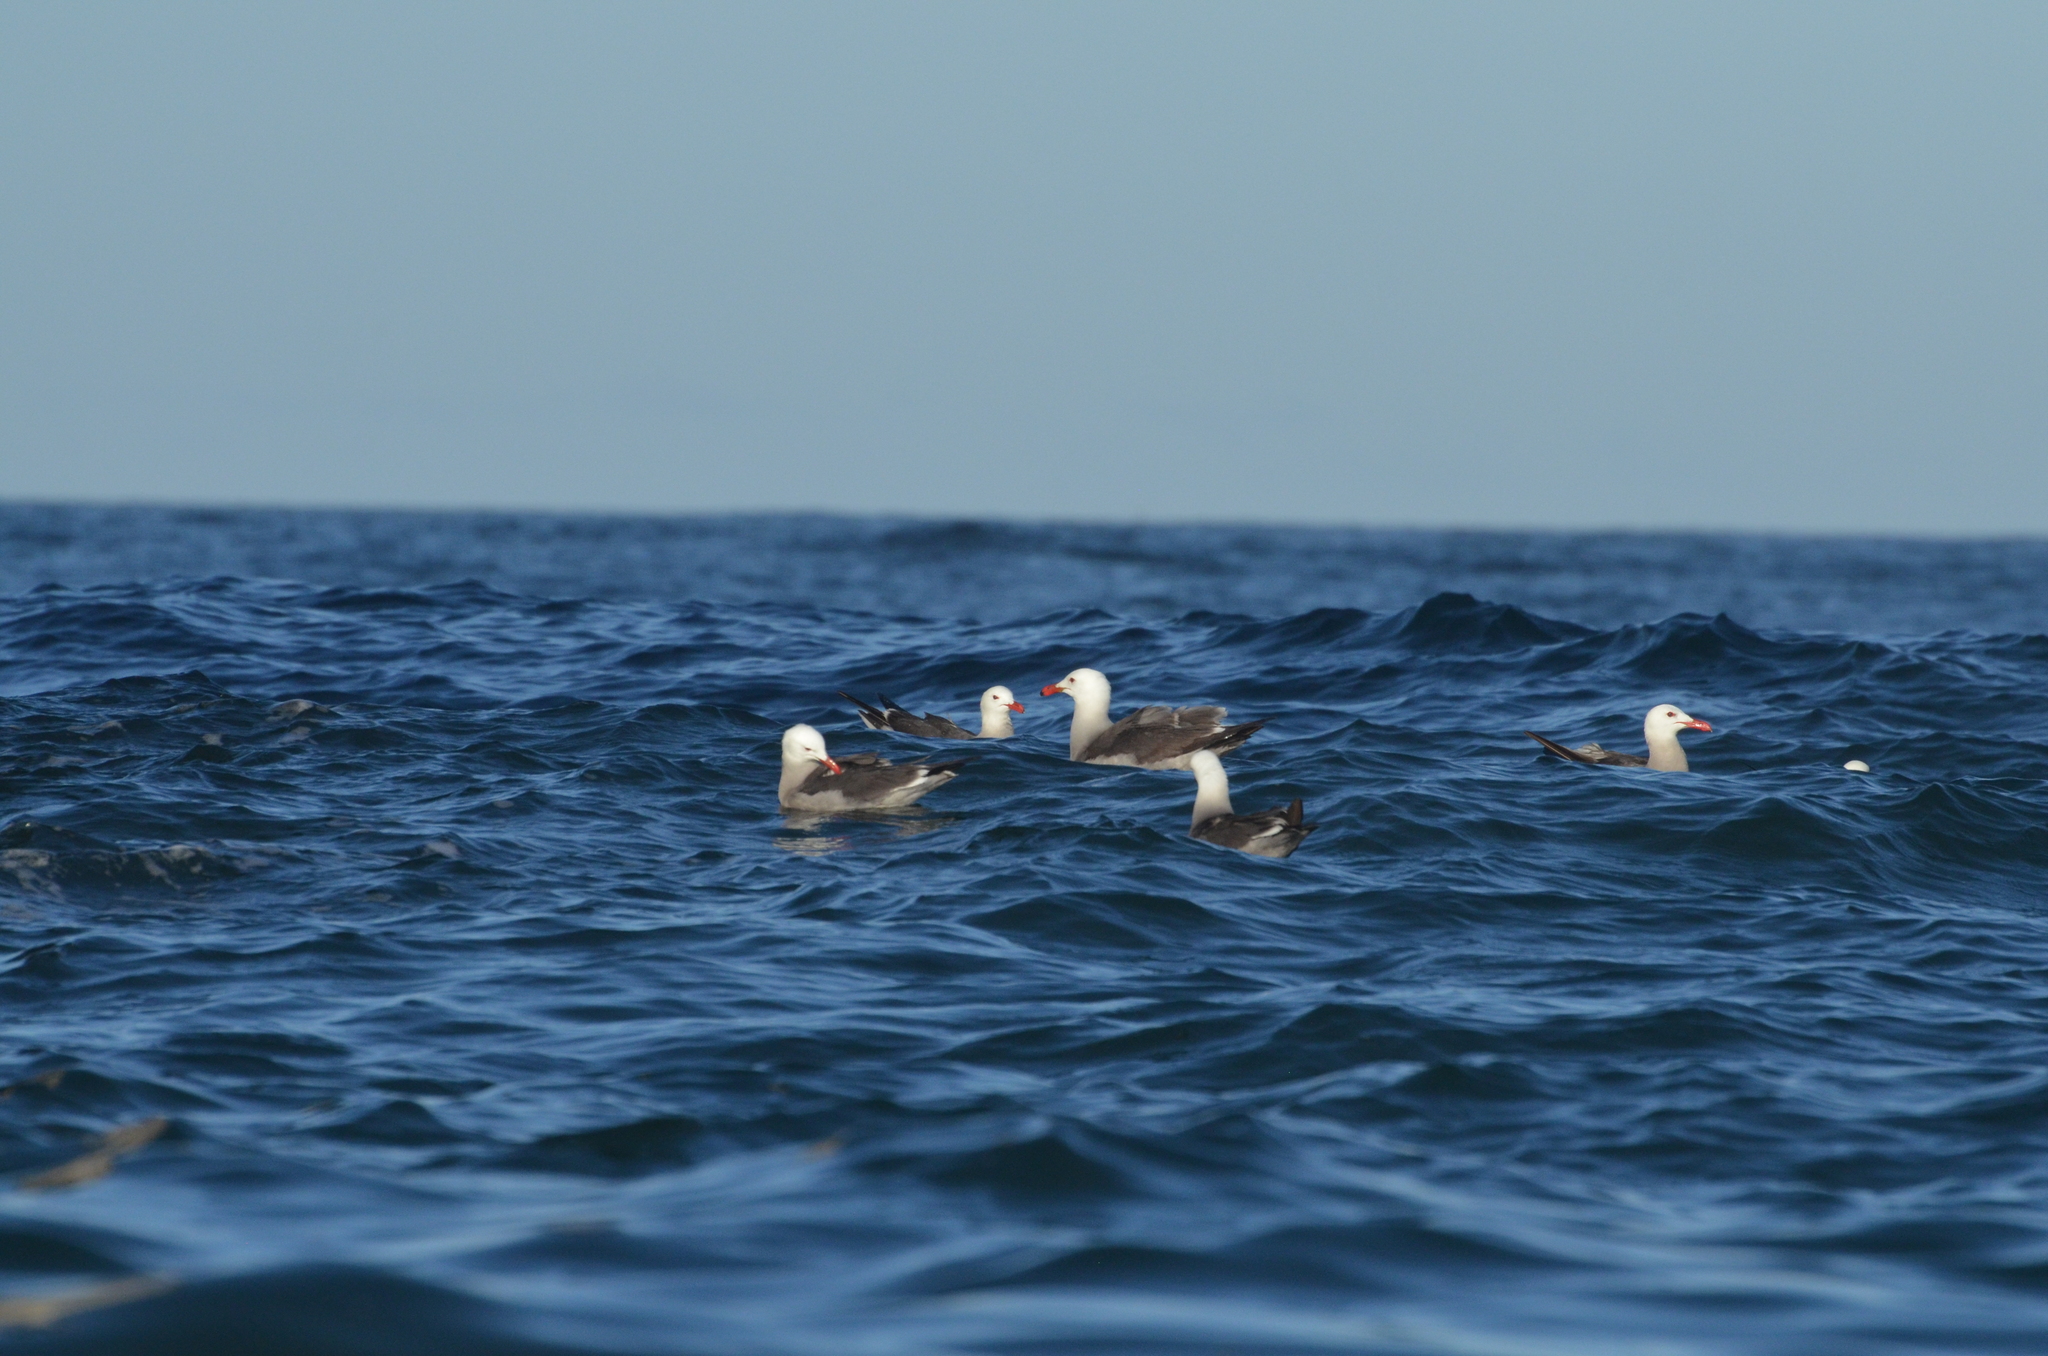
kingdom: Animalia
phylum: Chordata
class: Aves
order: Charadriiformes
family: Laridae
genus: Larus
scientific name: Larus heermanni
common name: Heermann's gull
